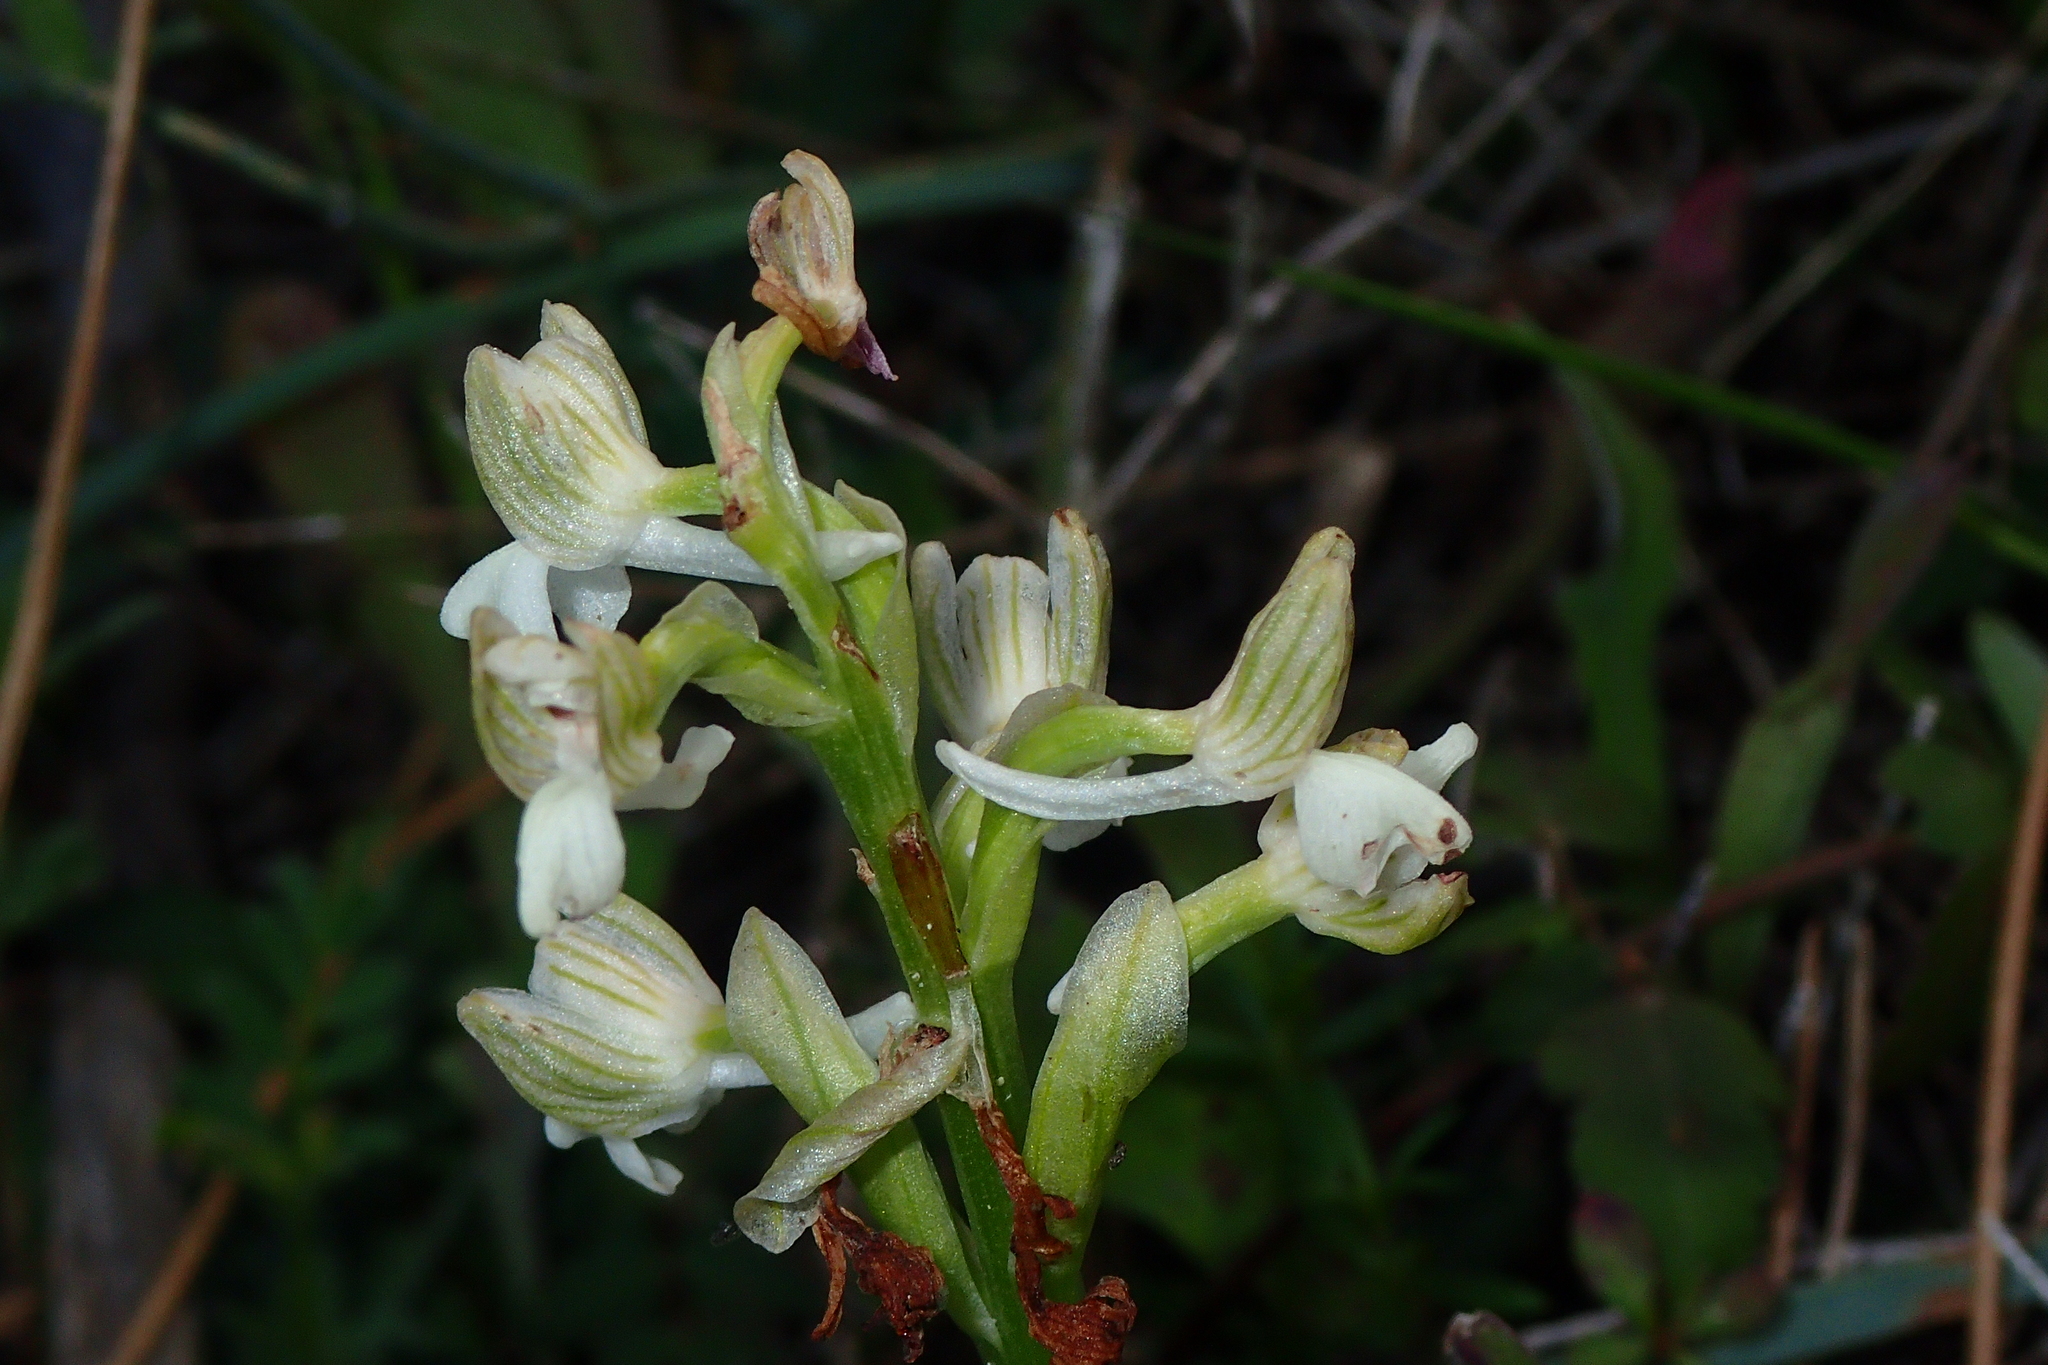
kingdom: Plantae
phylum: Tracheophyta
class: Liliopsida
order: Asparagales
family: Orchidaceae
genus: Anacamptis
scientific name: Anacamptis morio
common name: Green-winged orchid
